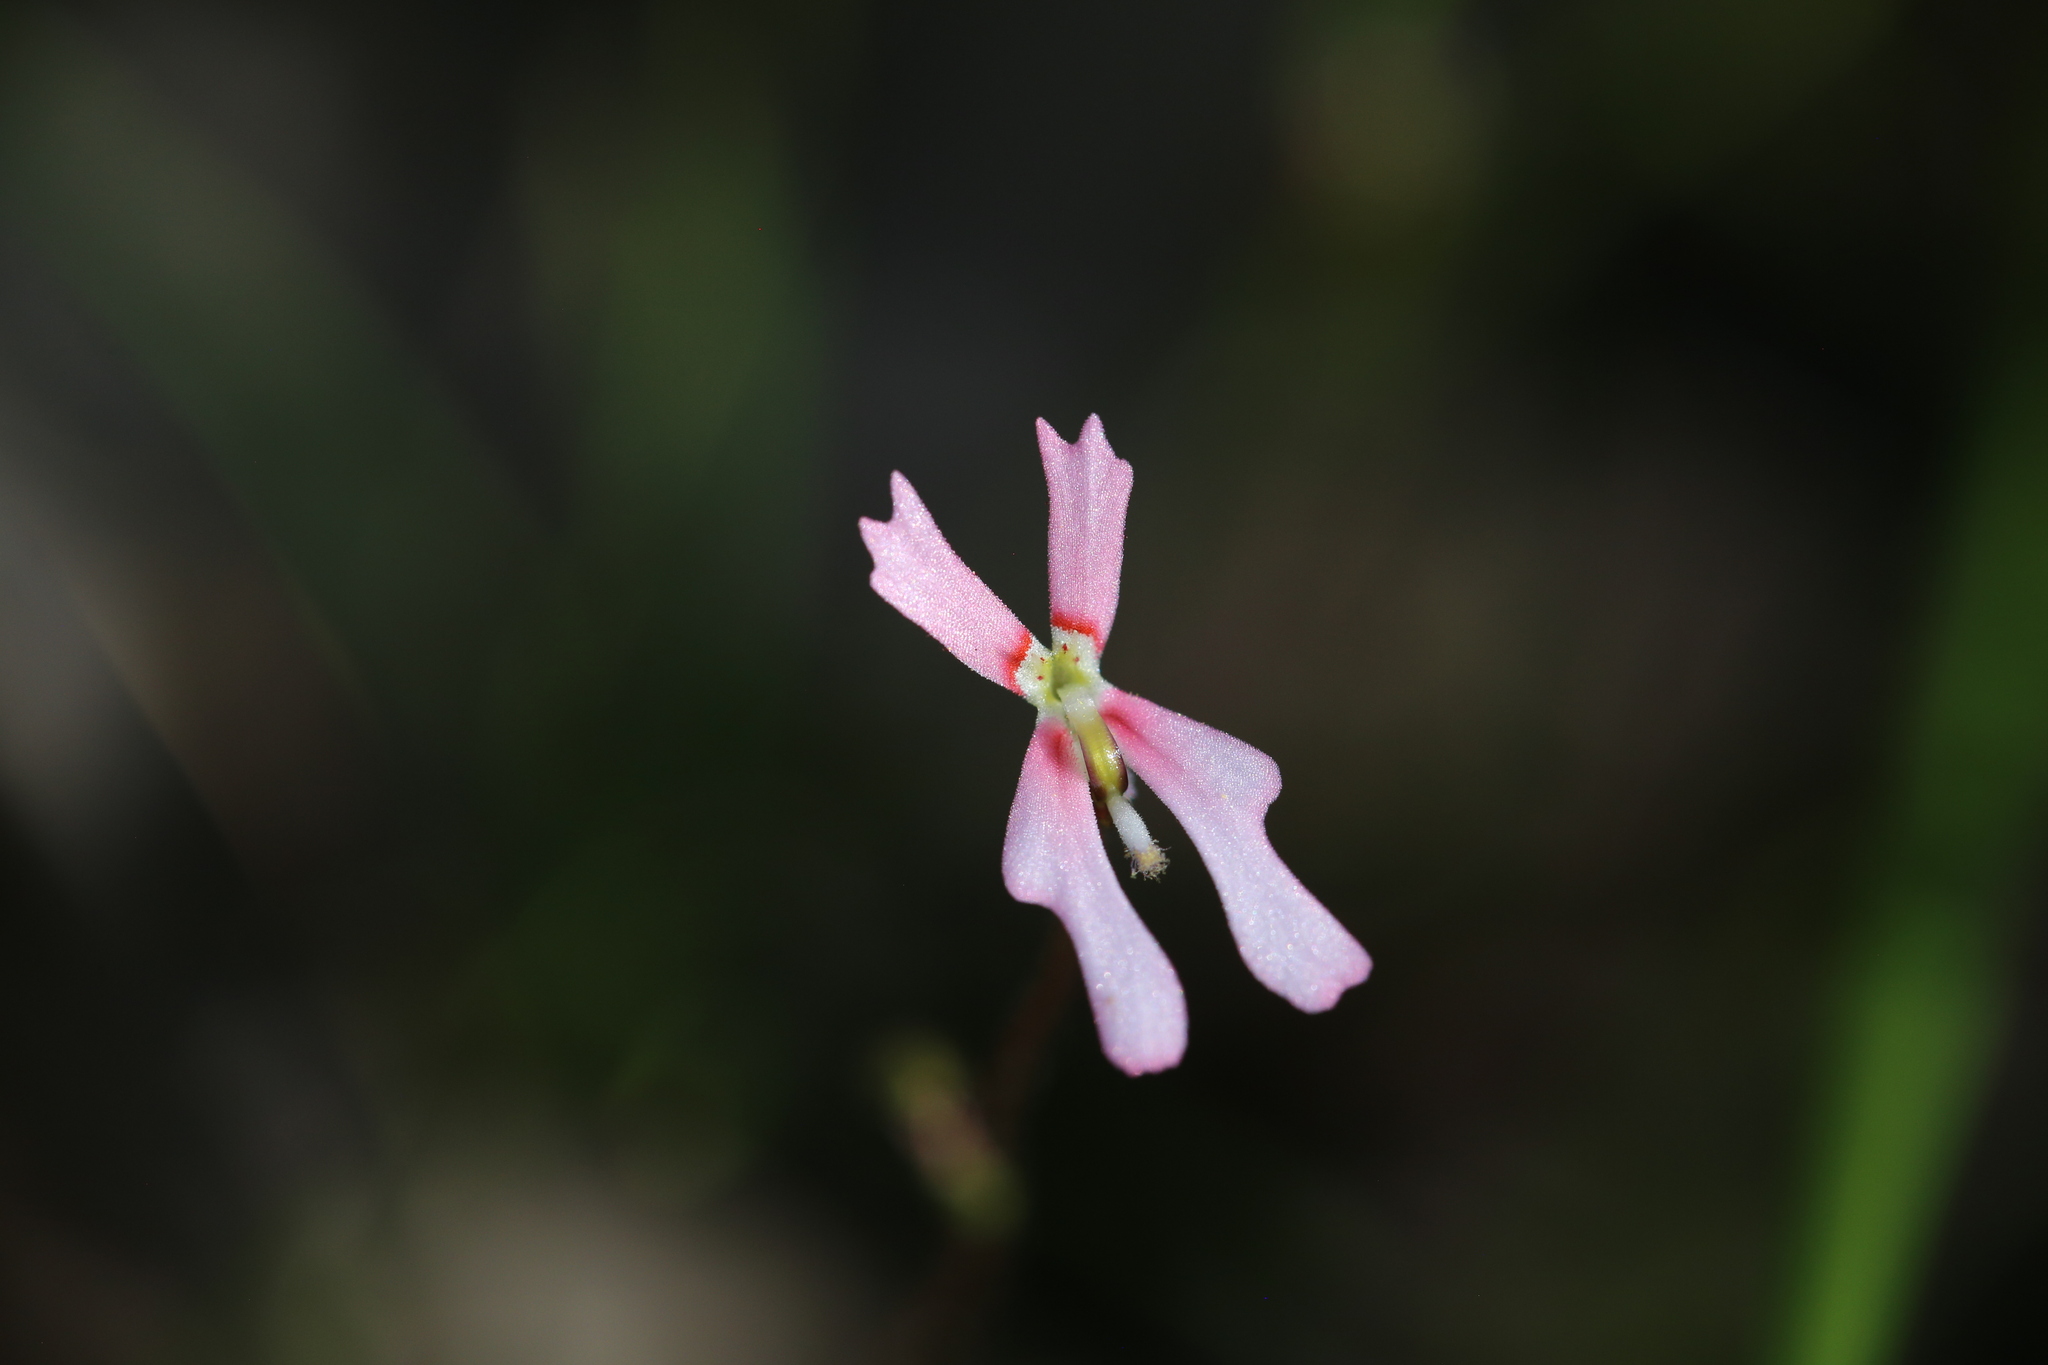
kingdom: Plantae
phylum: Tracheophyta
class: Magnoliopsida
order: Asterales
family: Stylidiaceae
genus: Stylidium
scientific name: Stylidium ecorne
